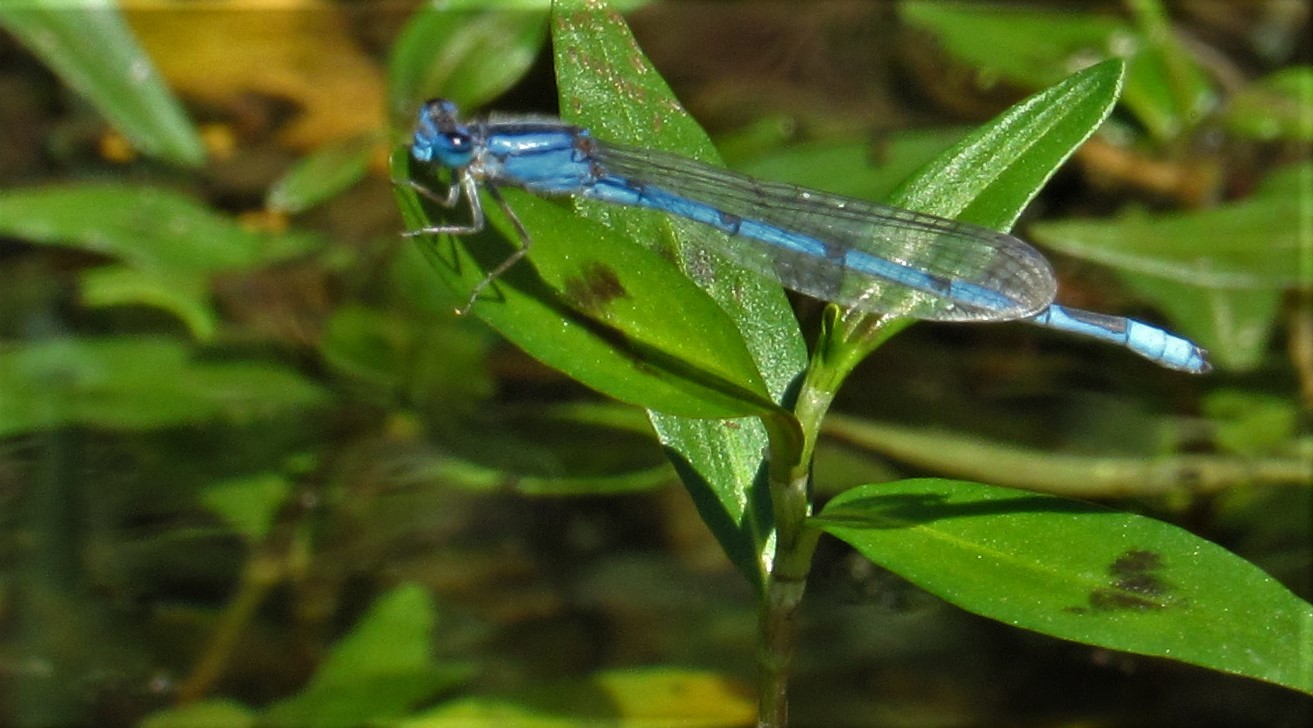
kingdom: Animalia
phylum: Arthropoda
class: Insecta
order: Odonata
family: Coenagrionidae
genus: Enallagma
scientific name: Enallagma civile
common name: Damselfly
